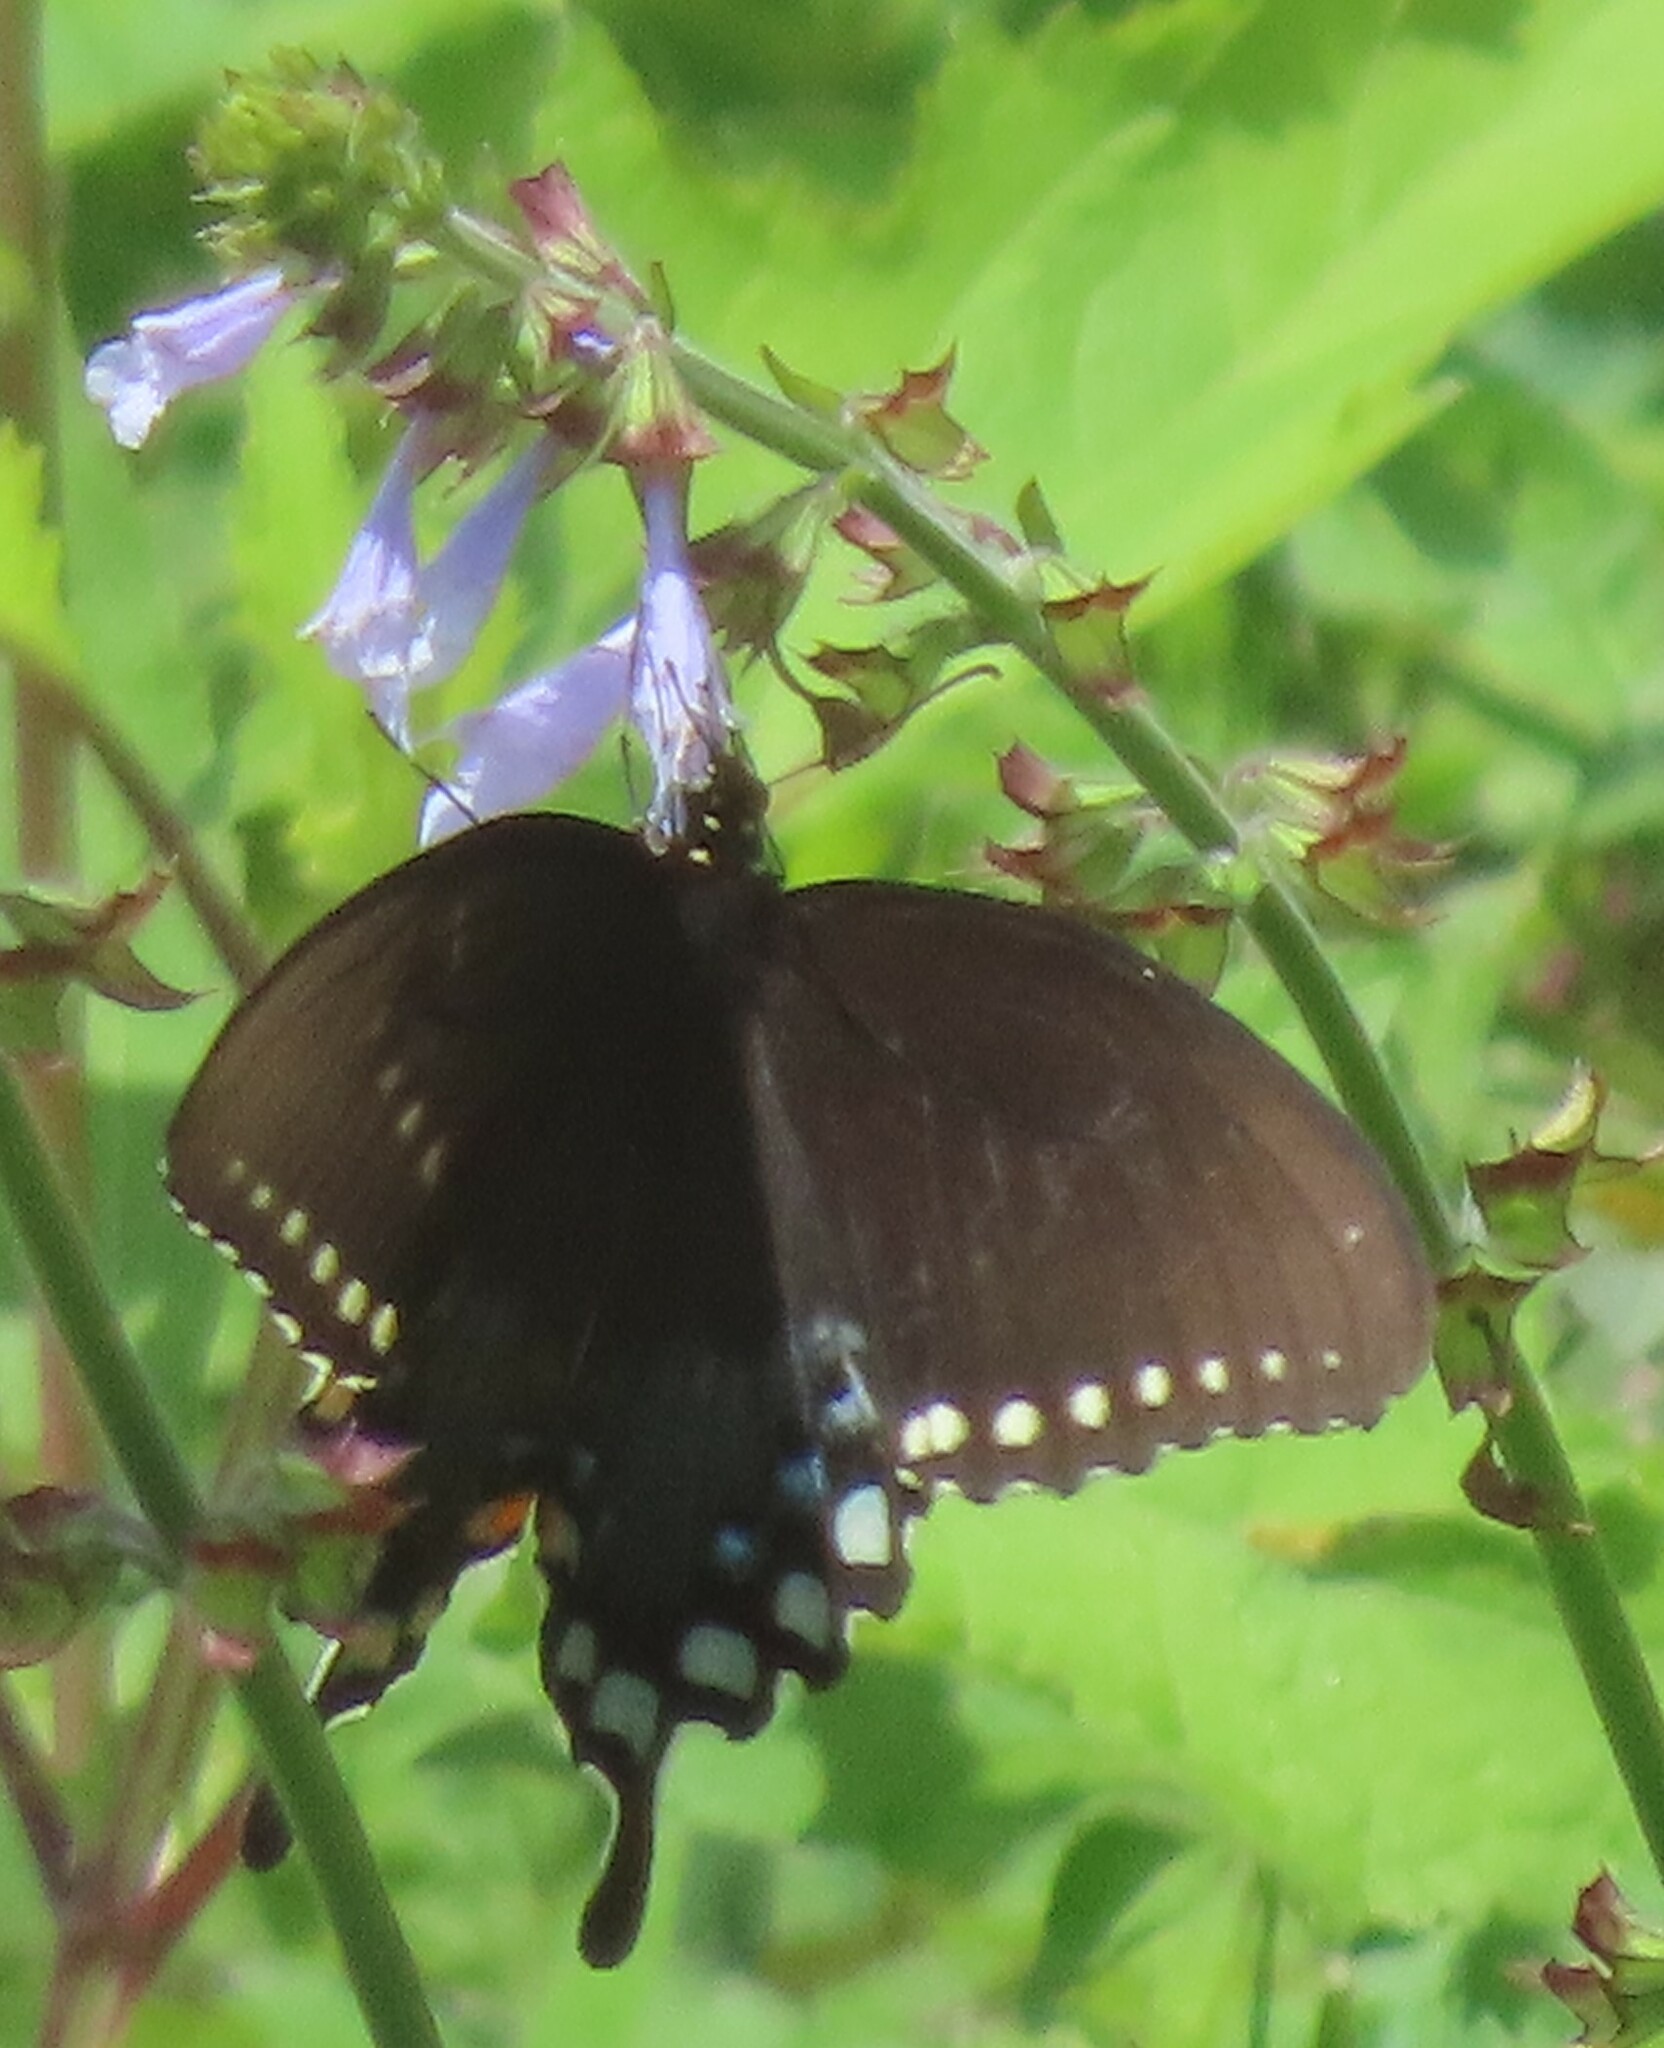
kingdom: Animalia
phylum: Arthropoda
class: Insecta
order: Lepidoptera
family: Papilionidae
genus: Papilio
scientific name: Papilio troilus
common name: Spicebush swallowtail
